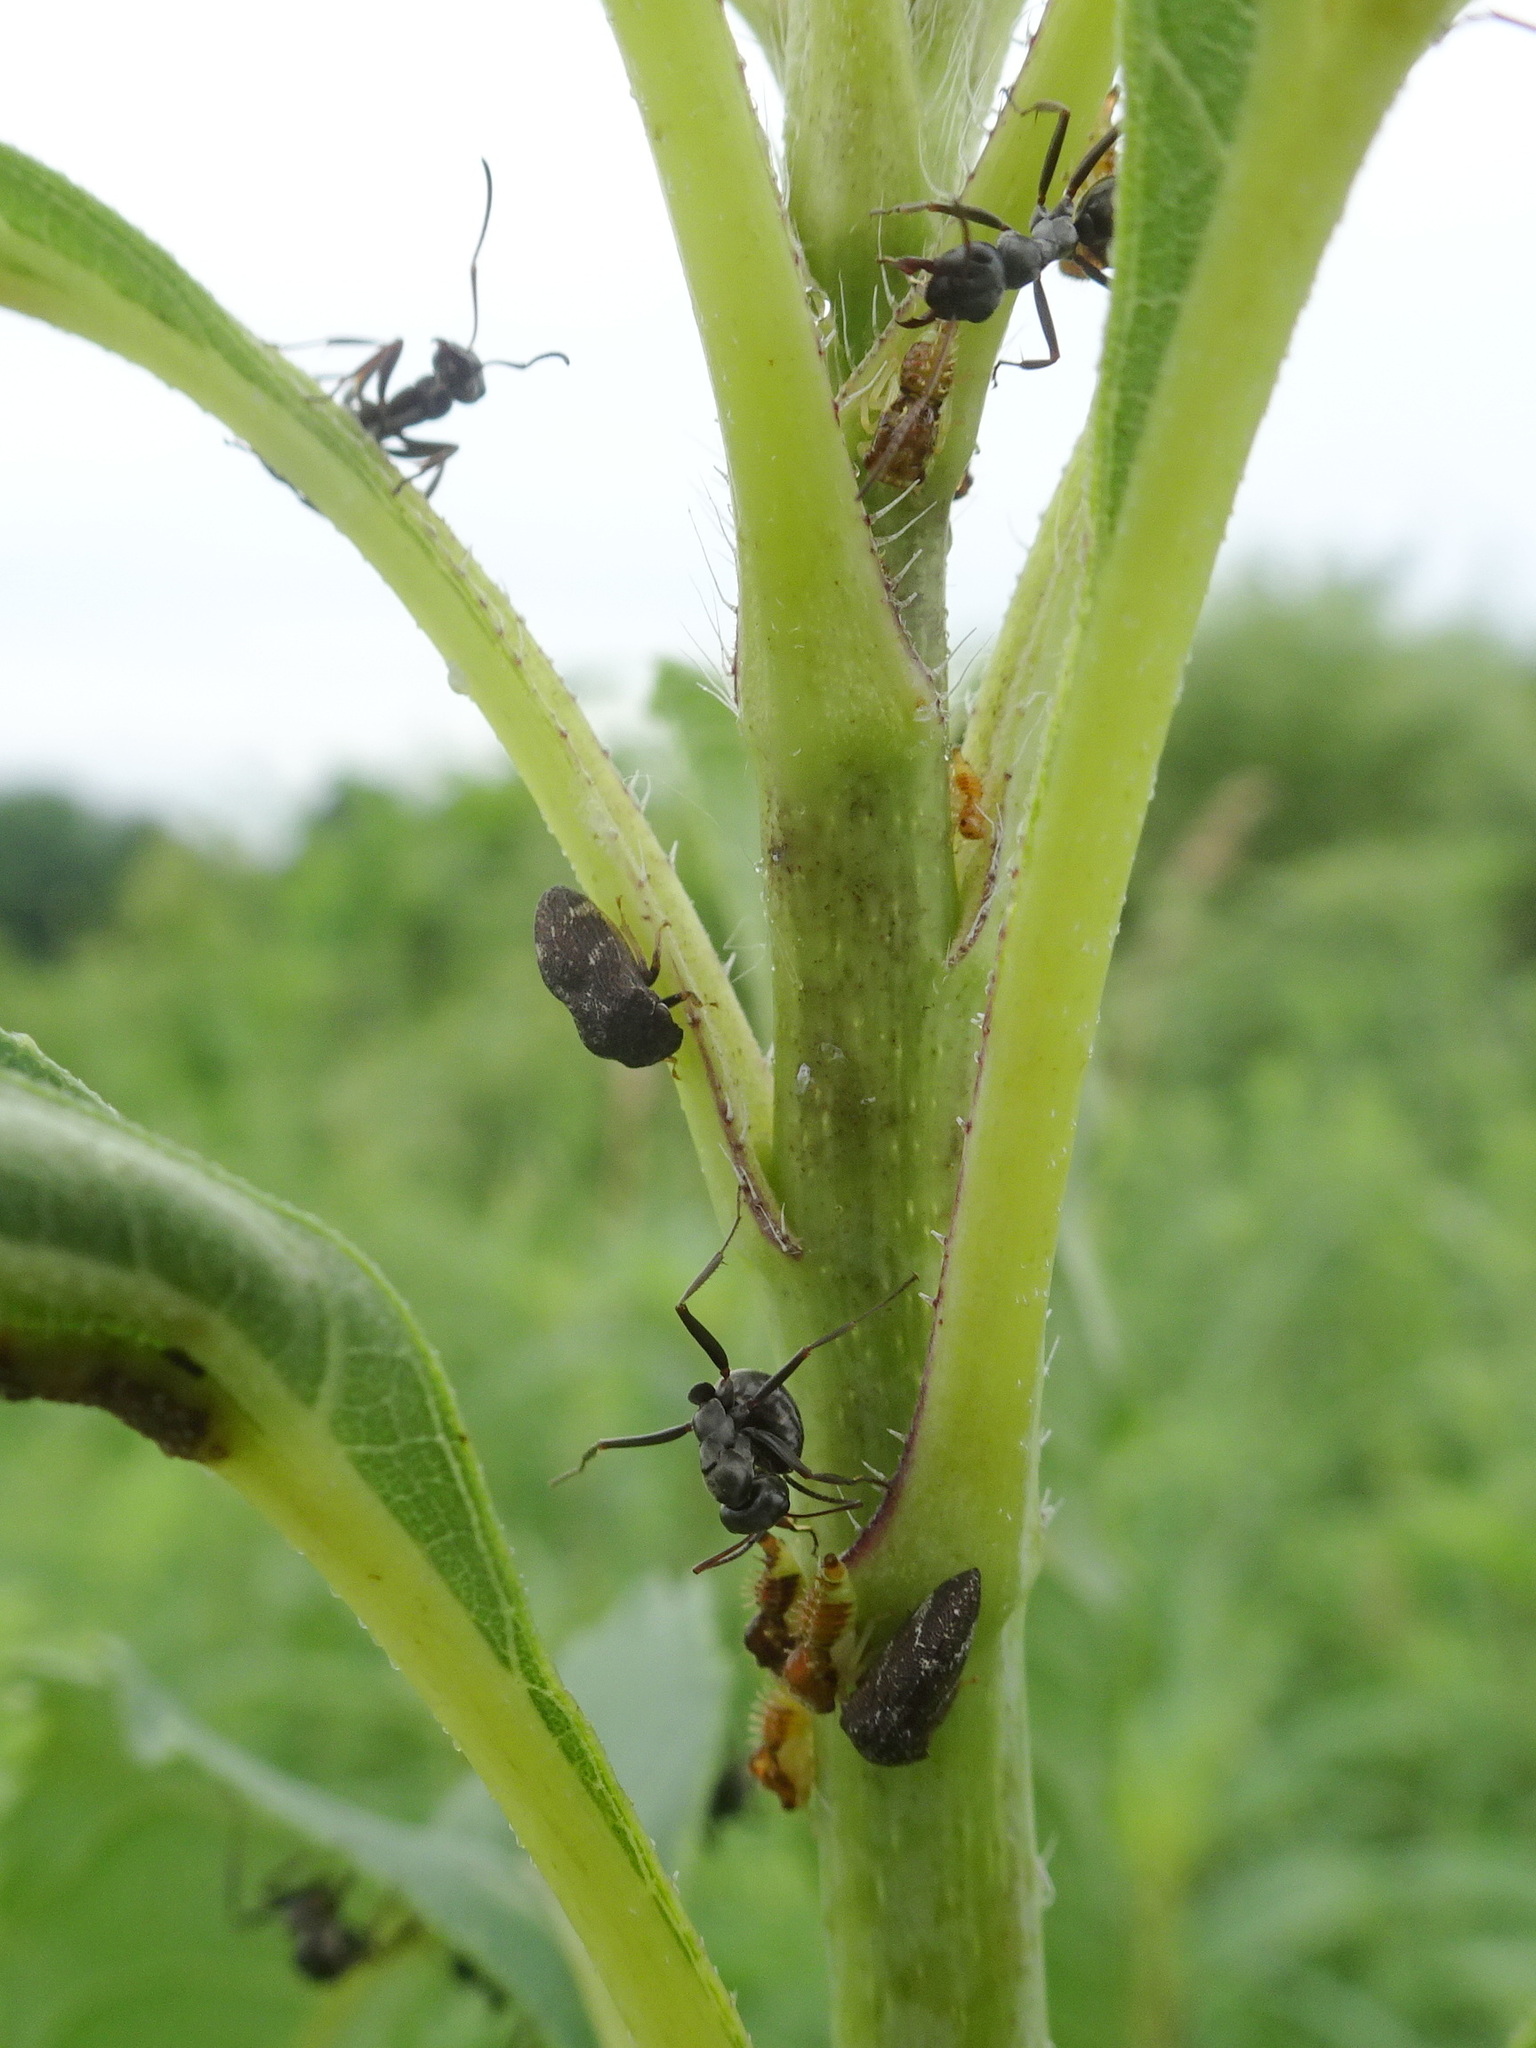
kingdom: Animalia
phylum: Arthropoda
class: Insecta
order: Hemiptera
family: Membracidae
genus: Publilia
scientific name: Publilia concava
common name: Aster treehopper
